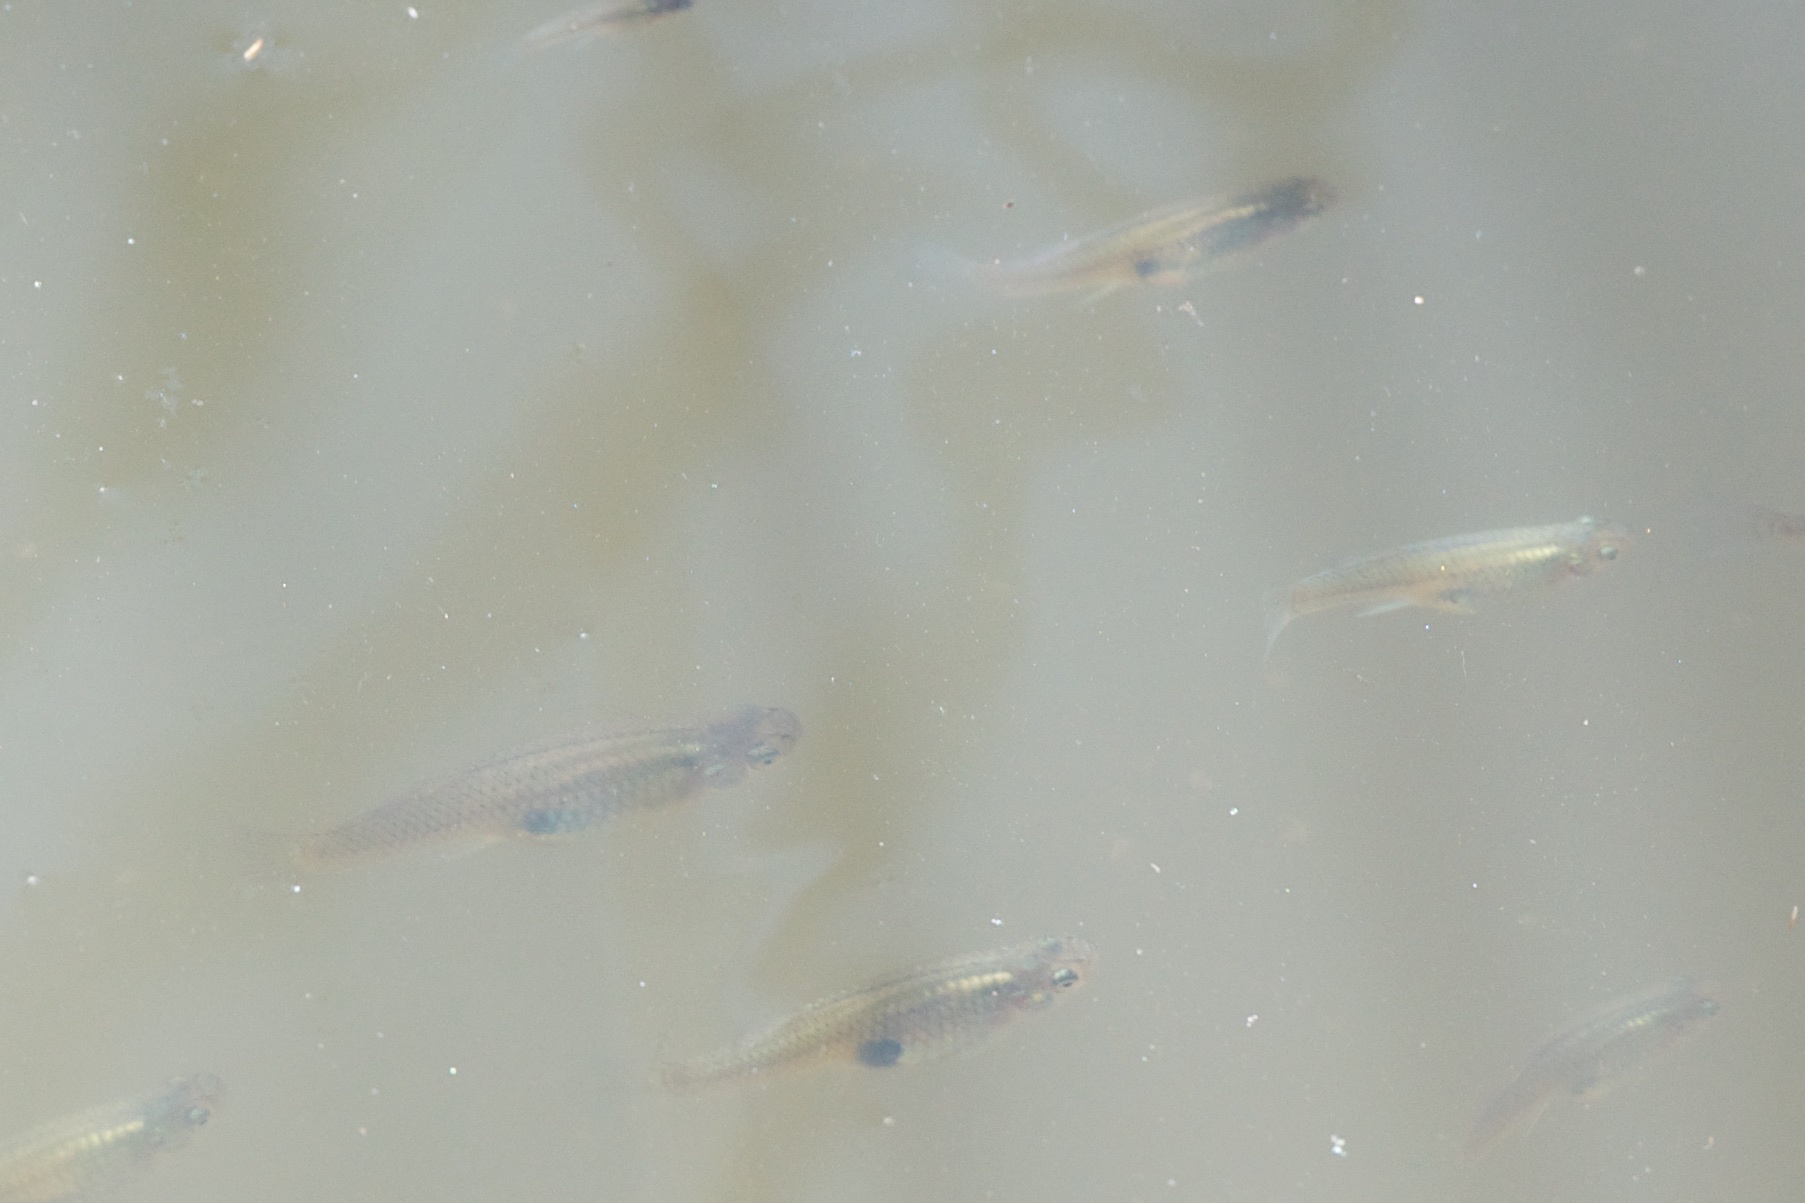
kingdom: Animalia
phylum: Chordata
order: Cyprinodontiformes
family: Poeciliidae
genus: Gambusia
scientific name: Gambusia affinis
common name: Mosquitofish
